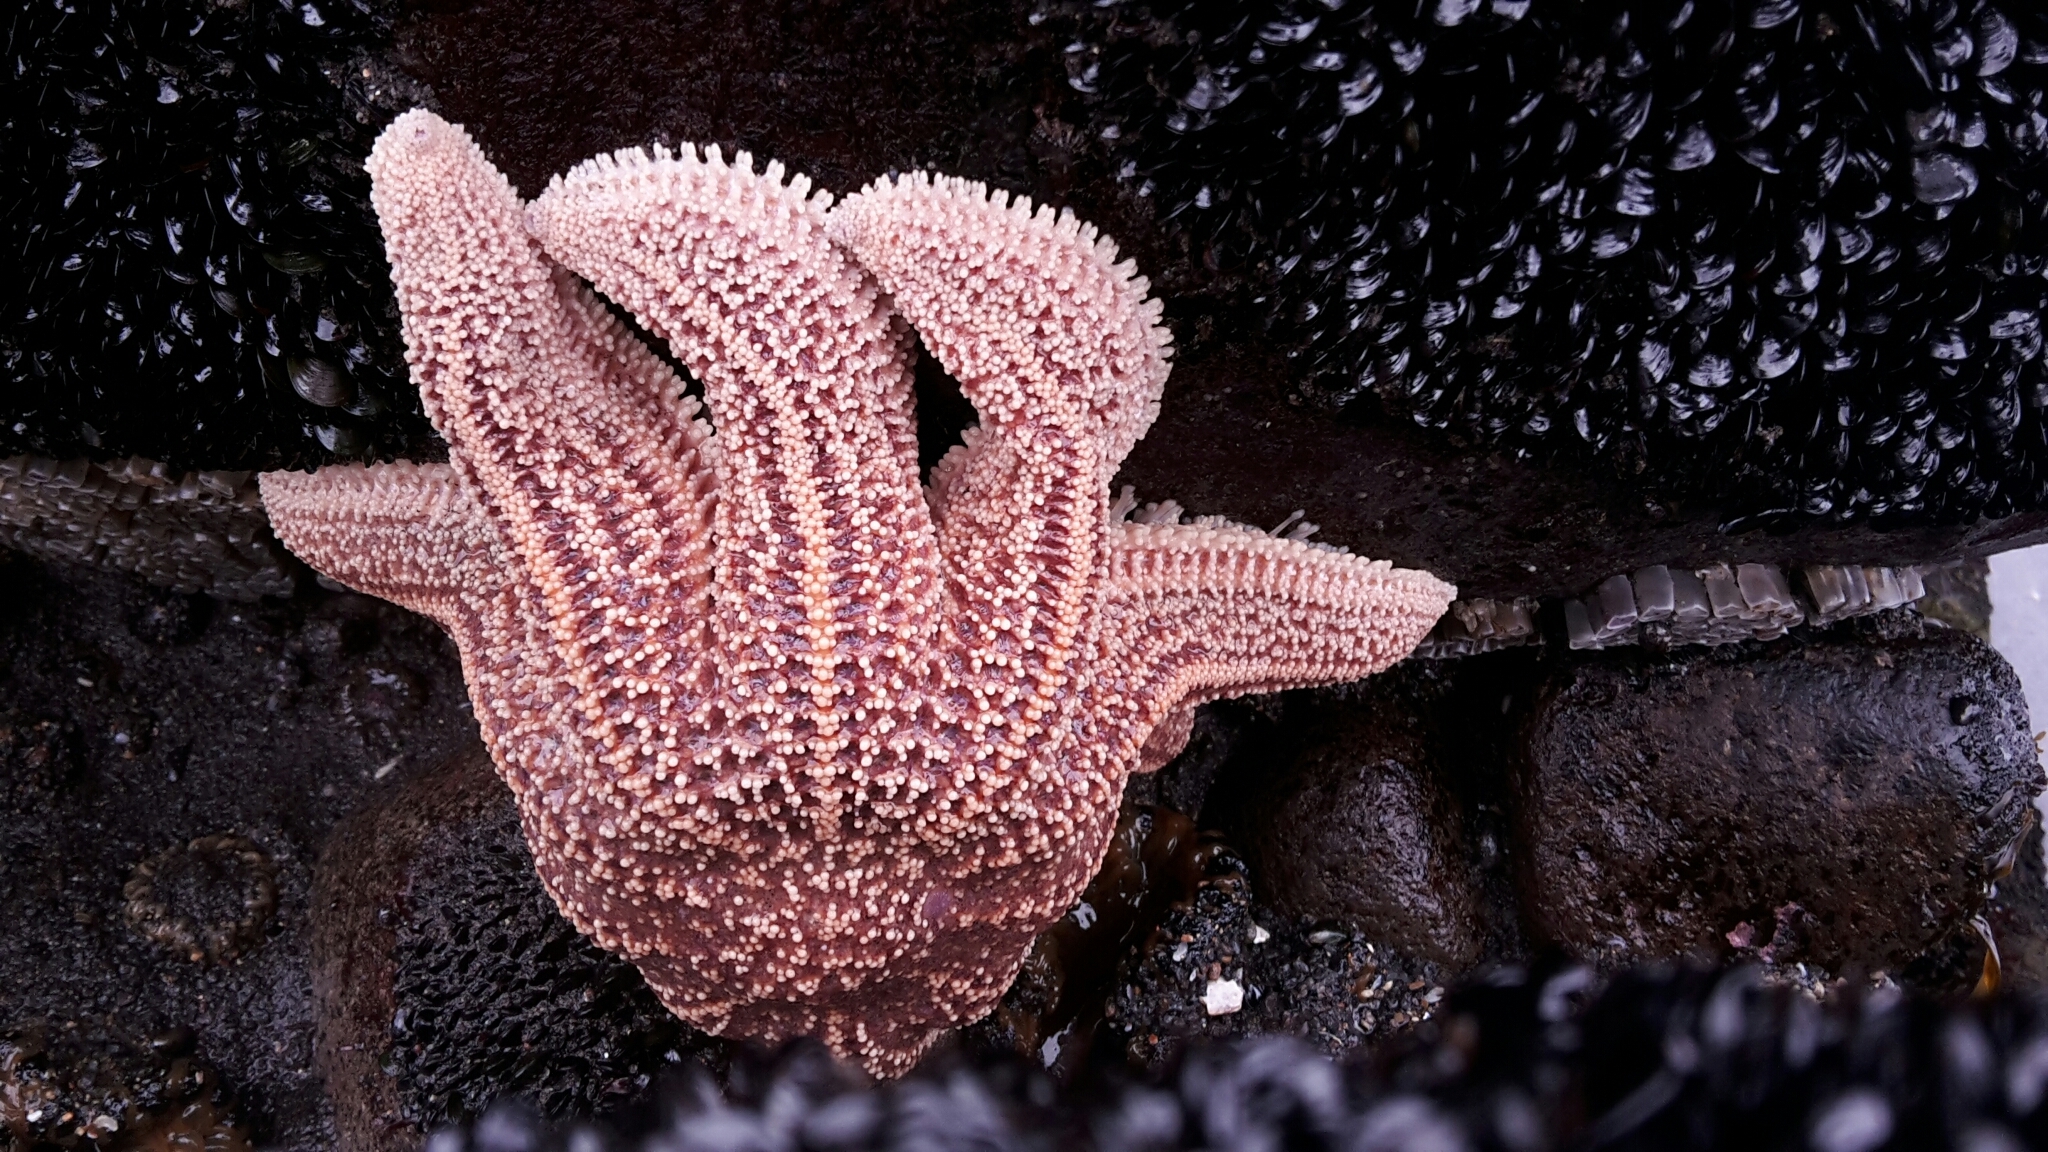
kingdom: Animalia
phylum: Echinodermata
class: Asteroidea
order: Forcipulatida
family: Stichasteridae
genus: Stichaster
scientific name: Stichaster australis
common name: Reef starfish
